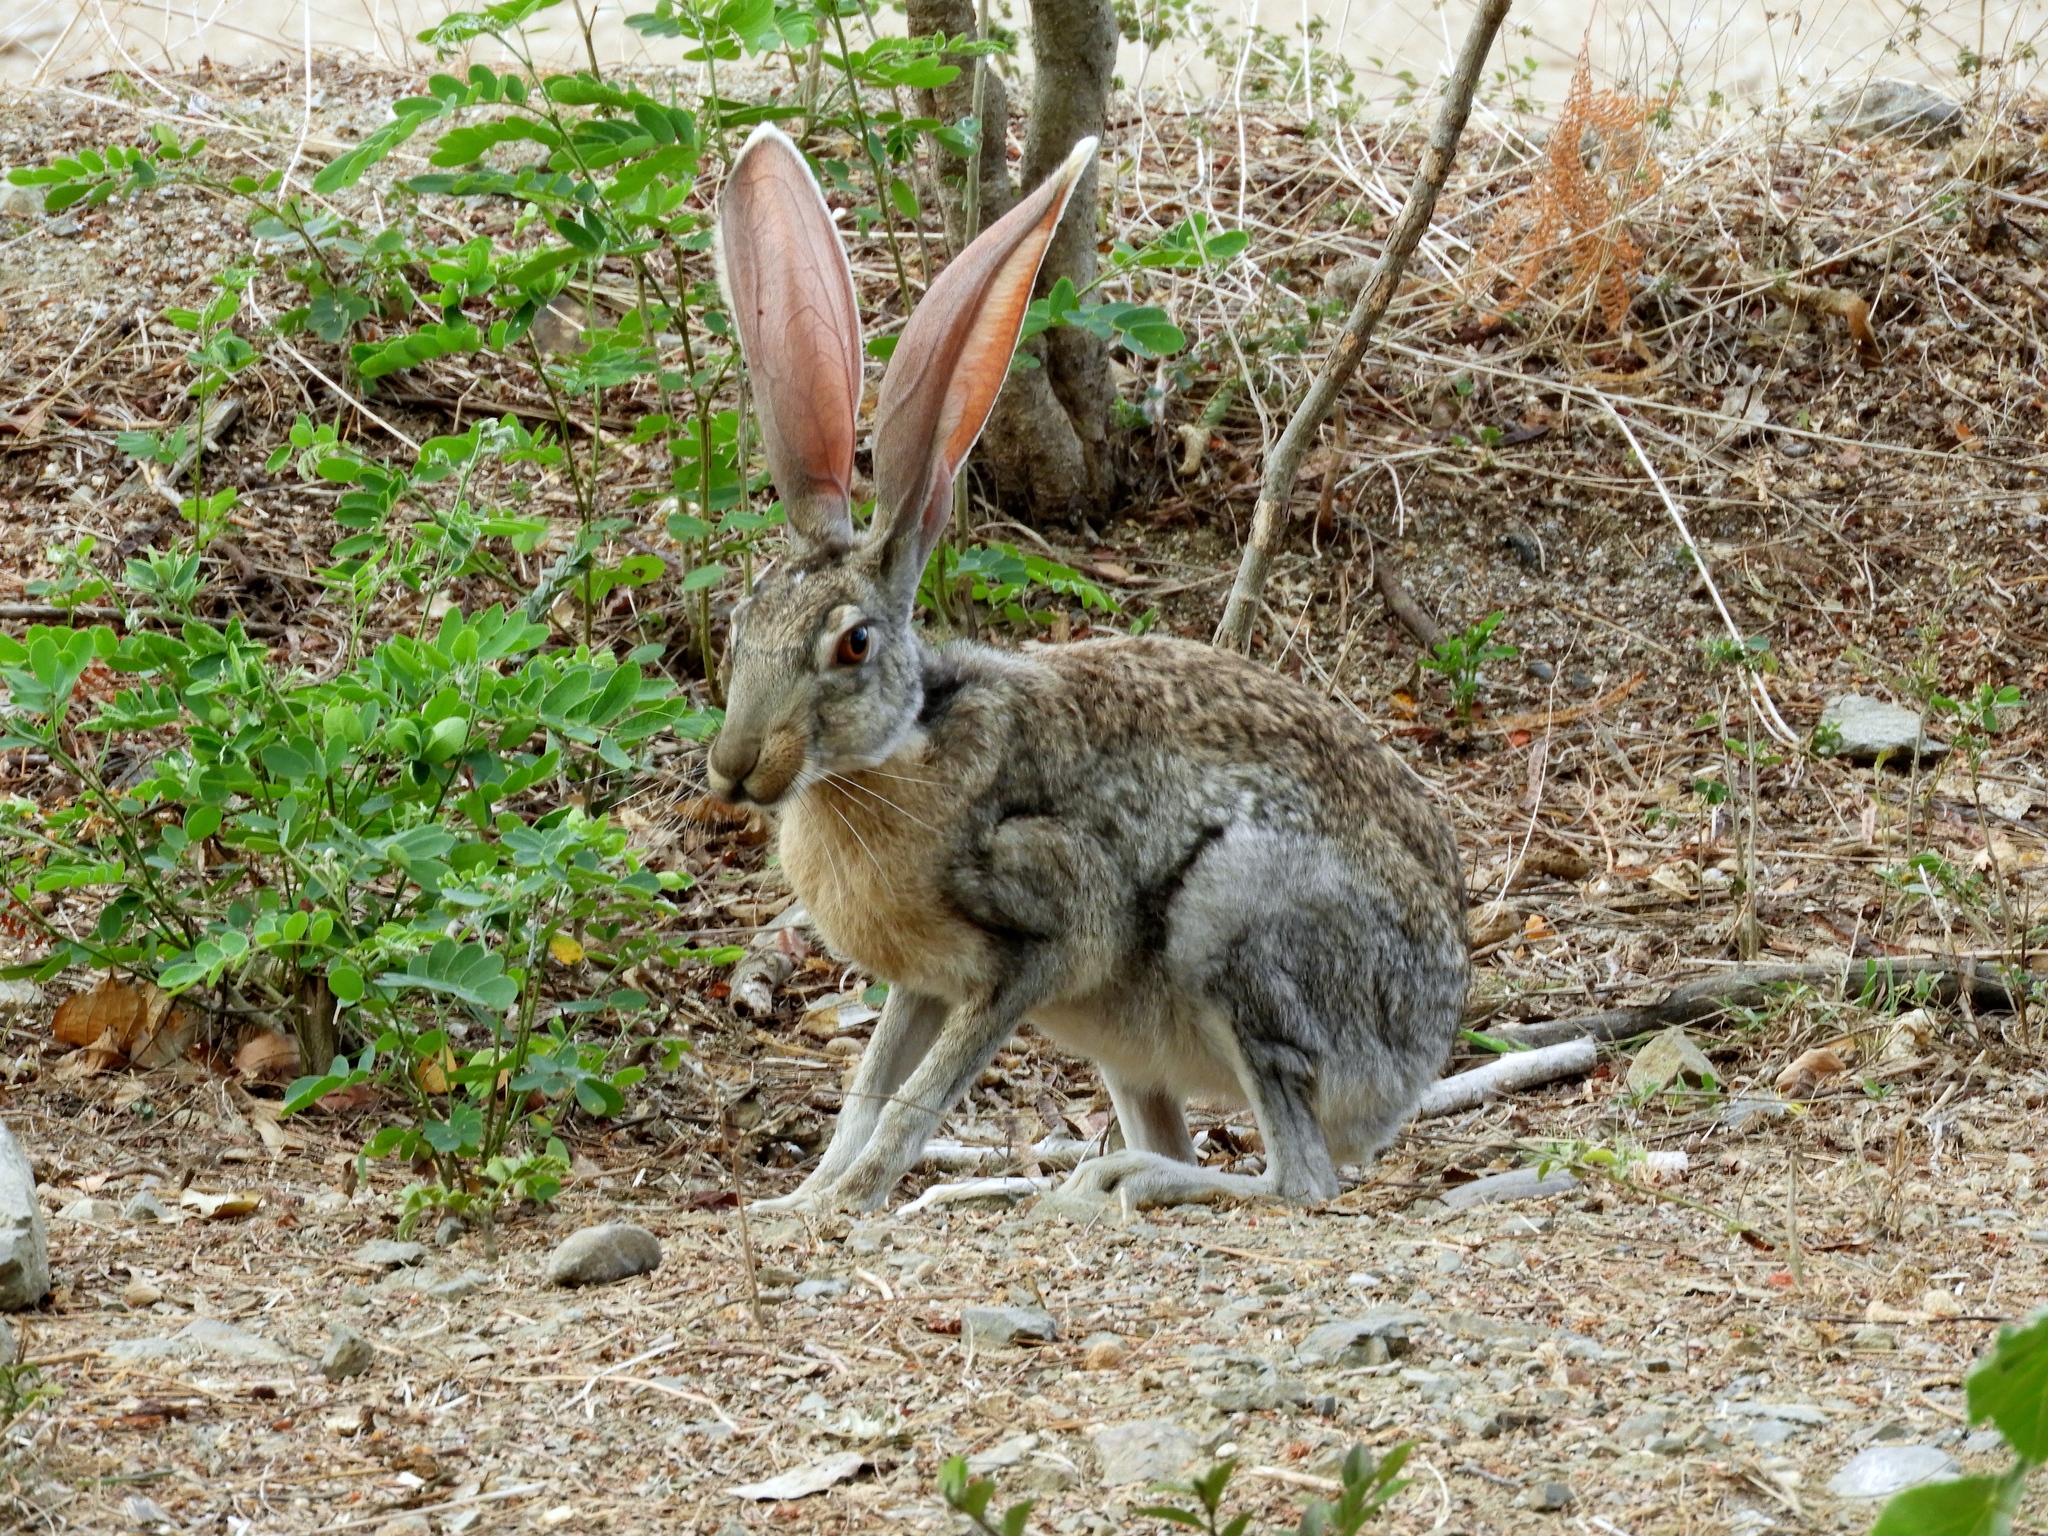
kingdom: Animalia
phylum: Chordata
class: Mammalia
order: Lagomorpha
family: Leporidae
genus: Lepus
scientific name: Lepus alleni
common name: Antelope jackrabbit
